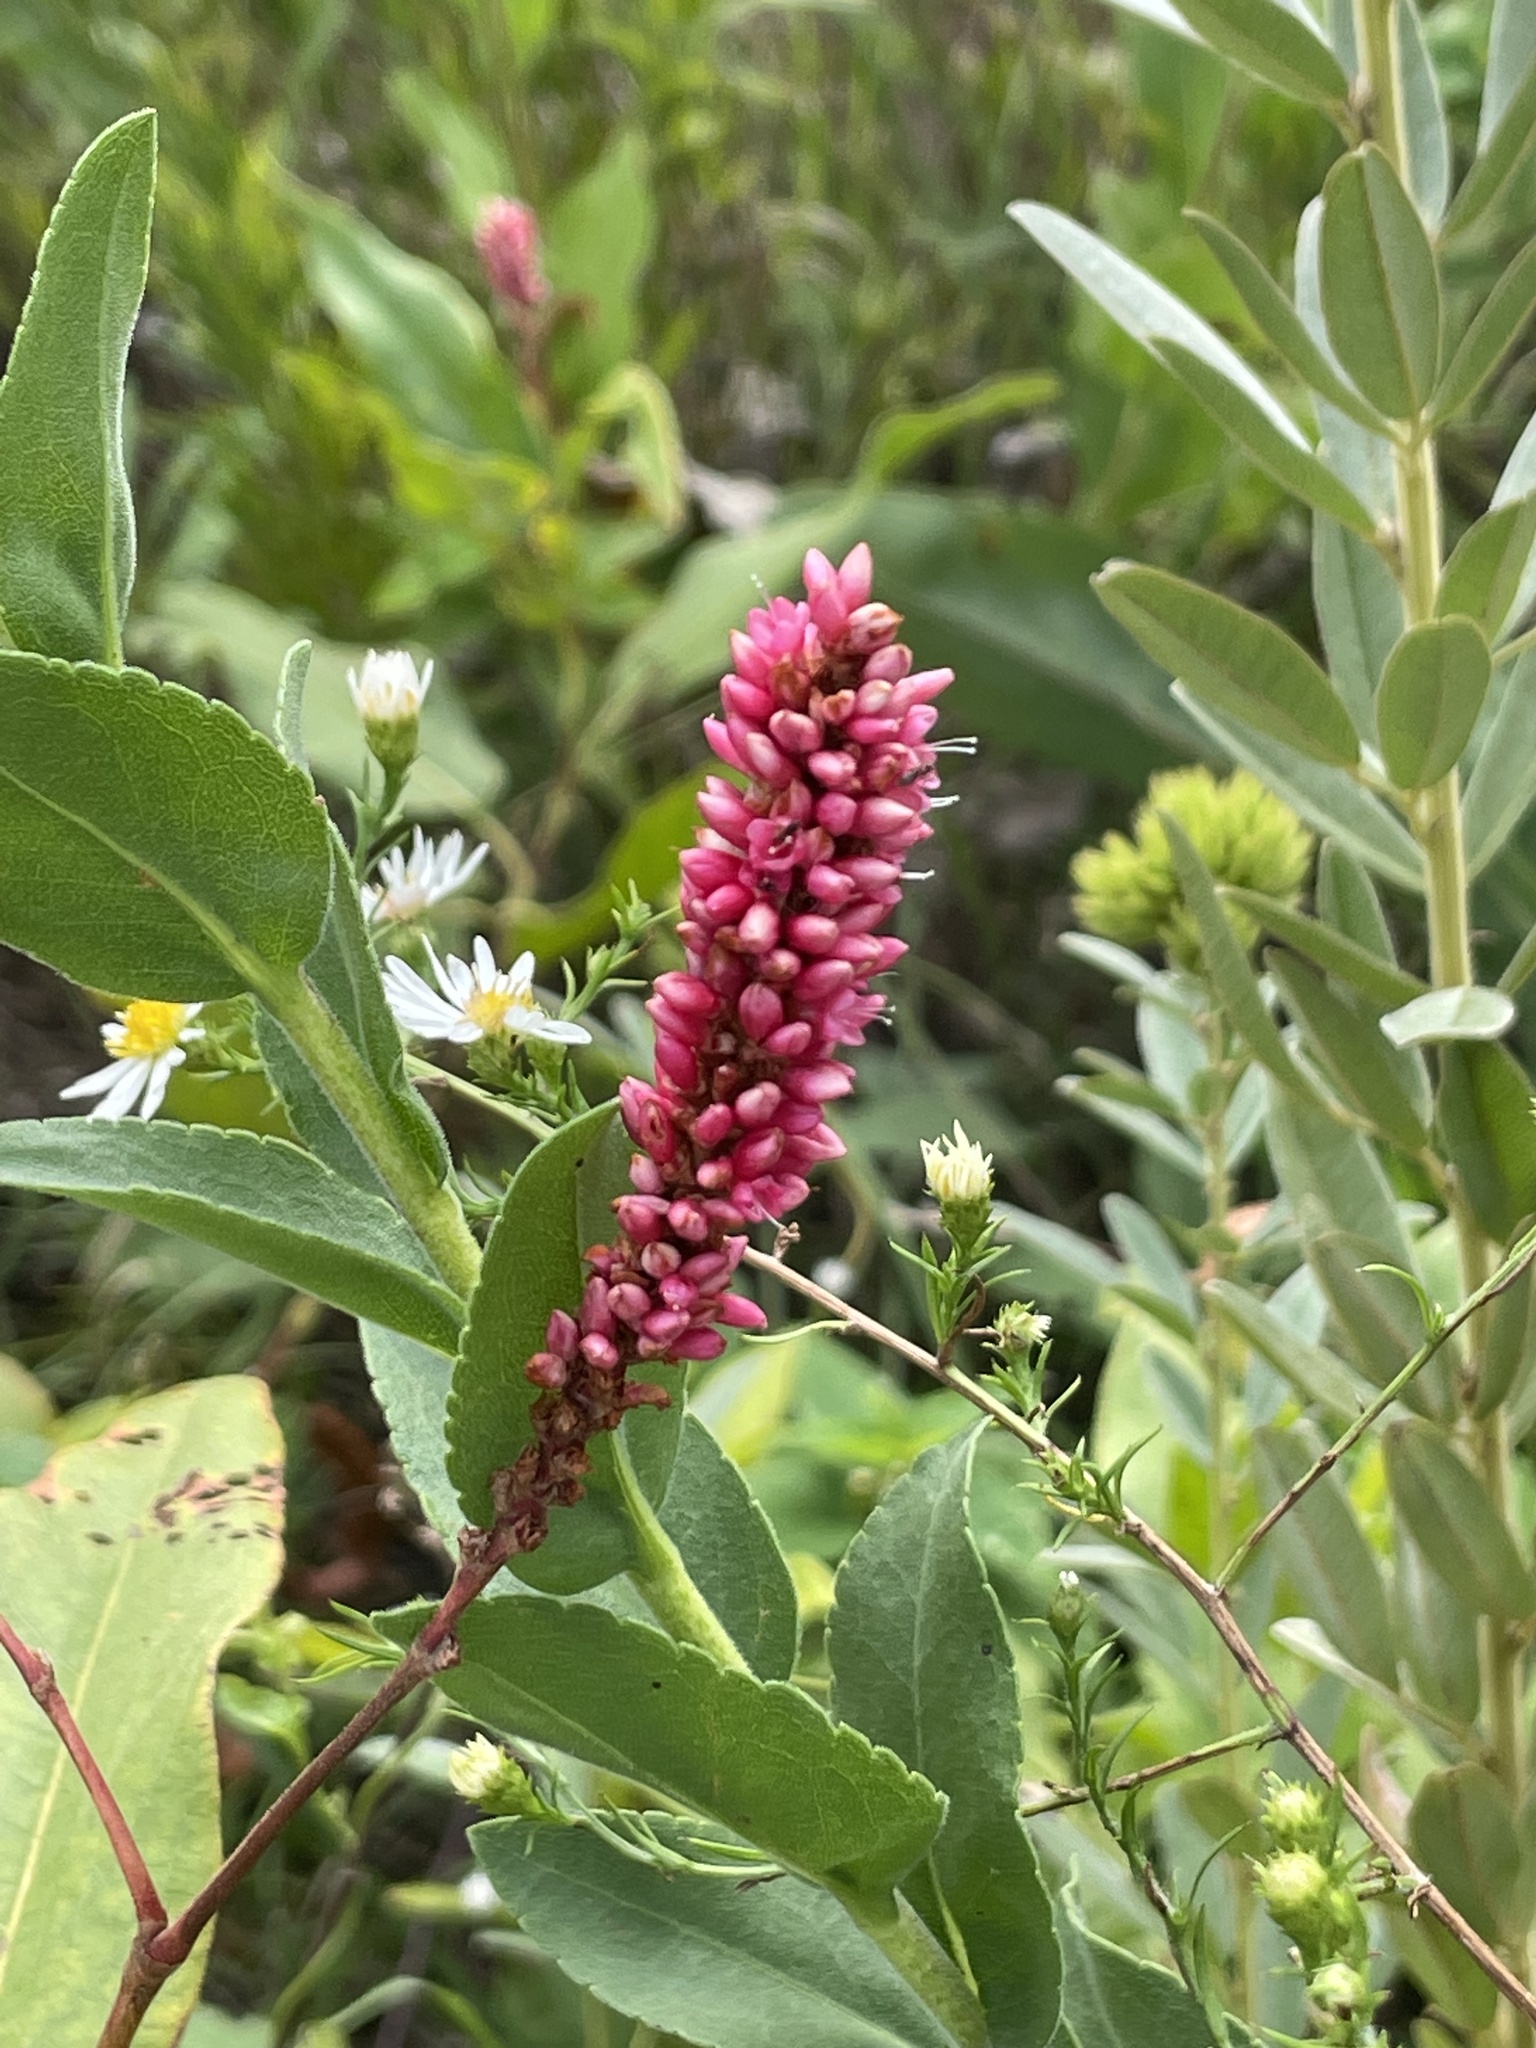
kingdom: Plantae
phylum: Tracheophyta
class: Magnoliopsida
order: Caryophyllales
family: Polygonaceae
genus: Persicaria
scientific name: Persicaria amphibia
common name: Amphibious bistort
